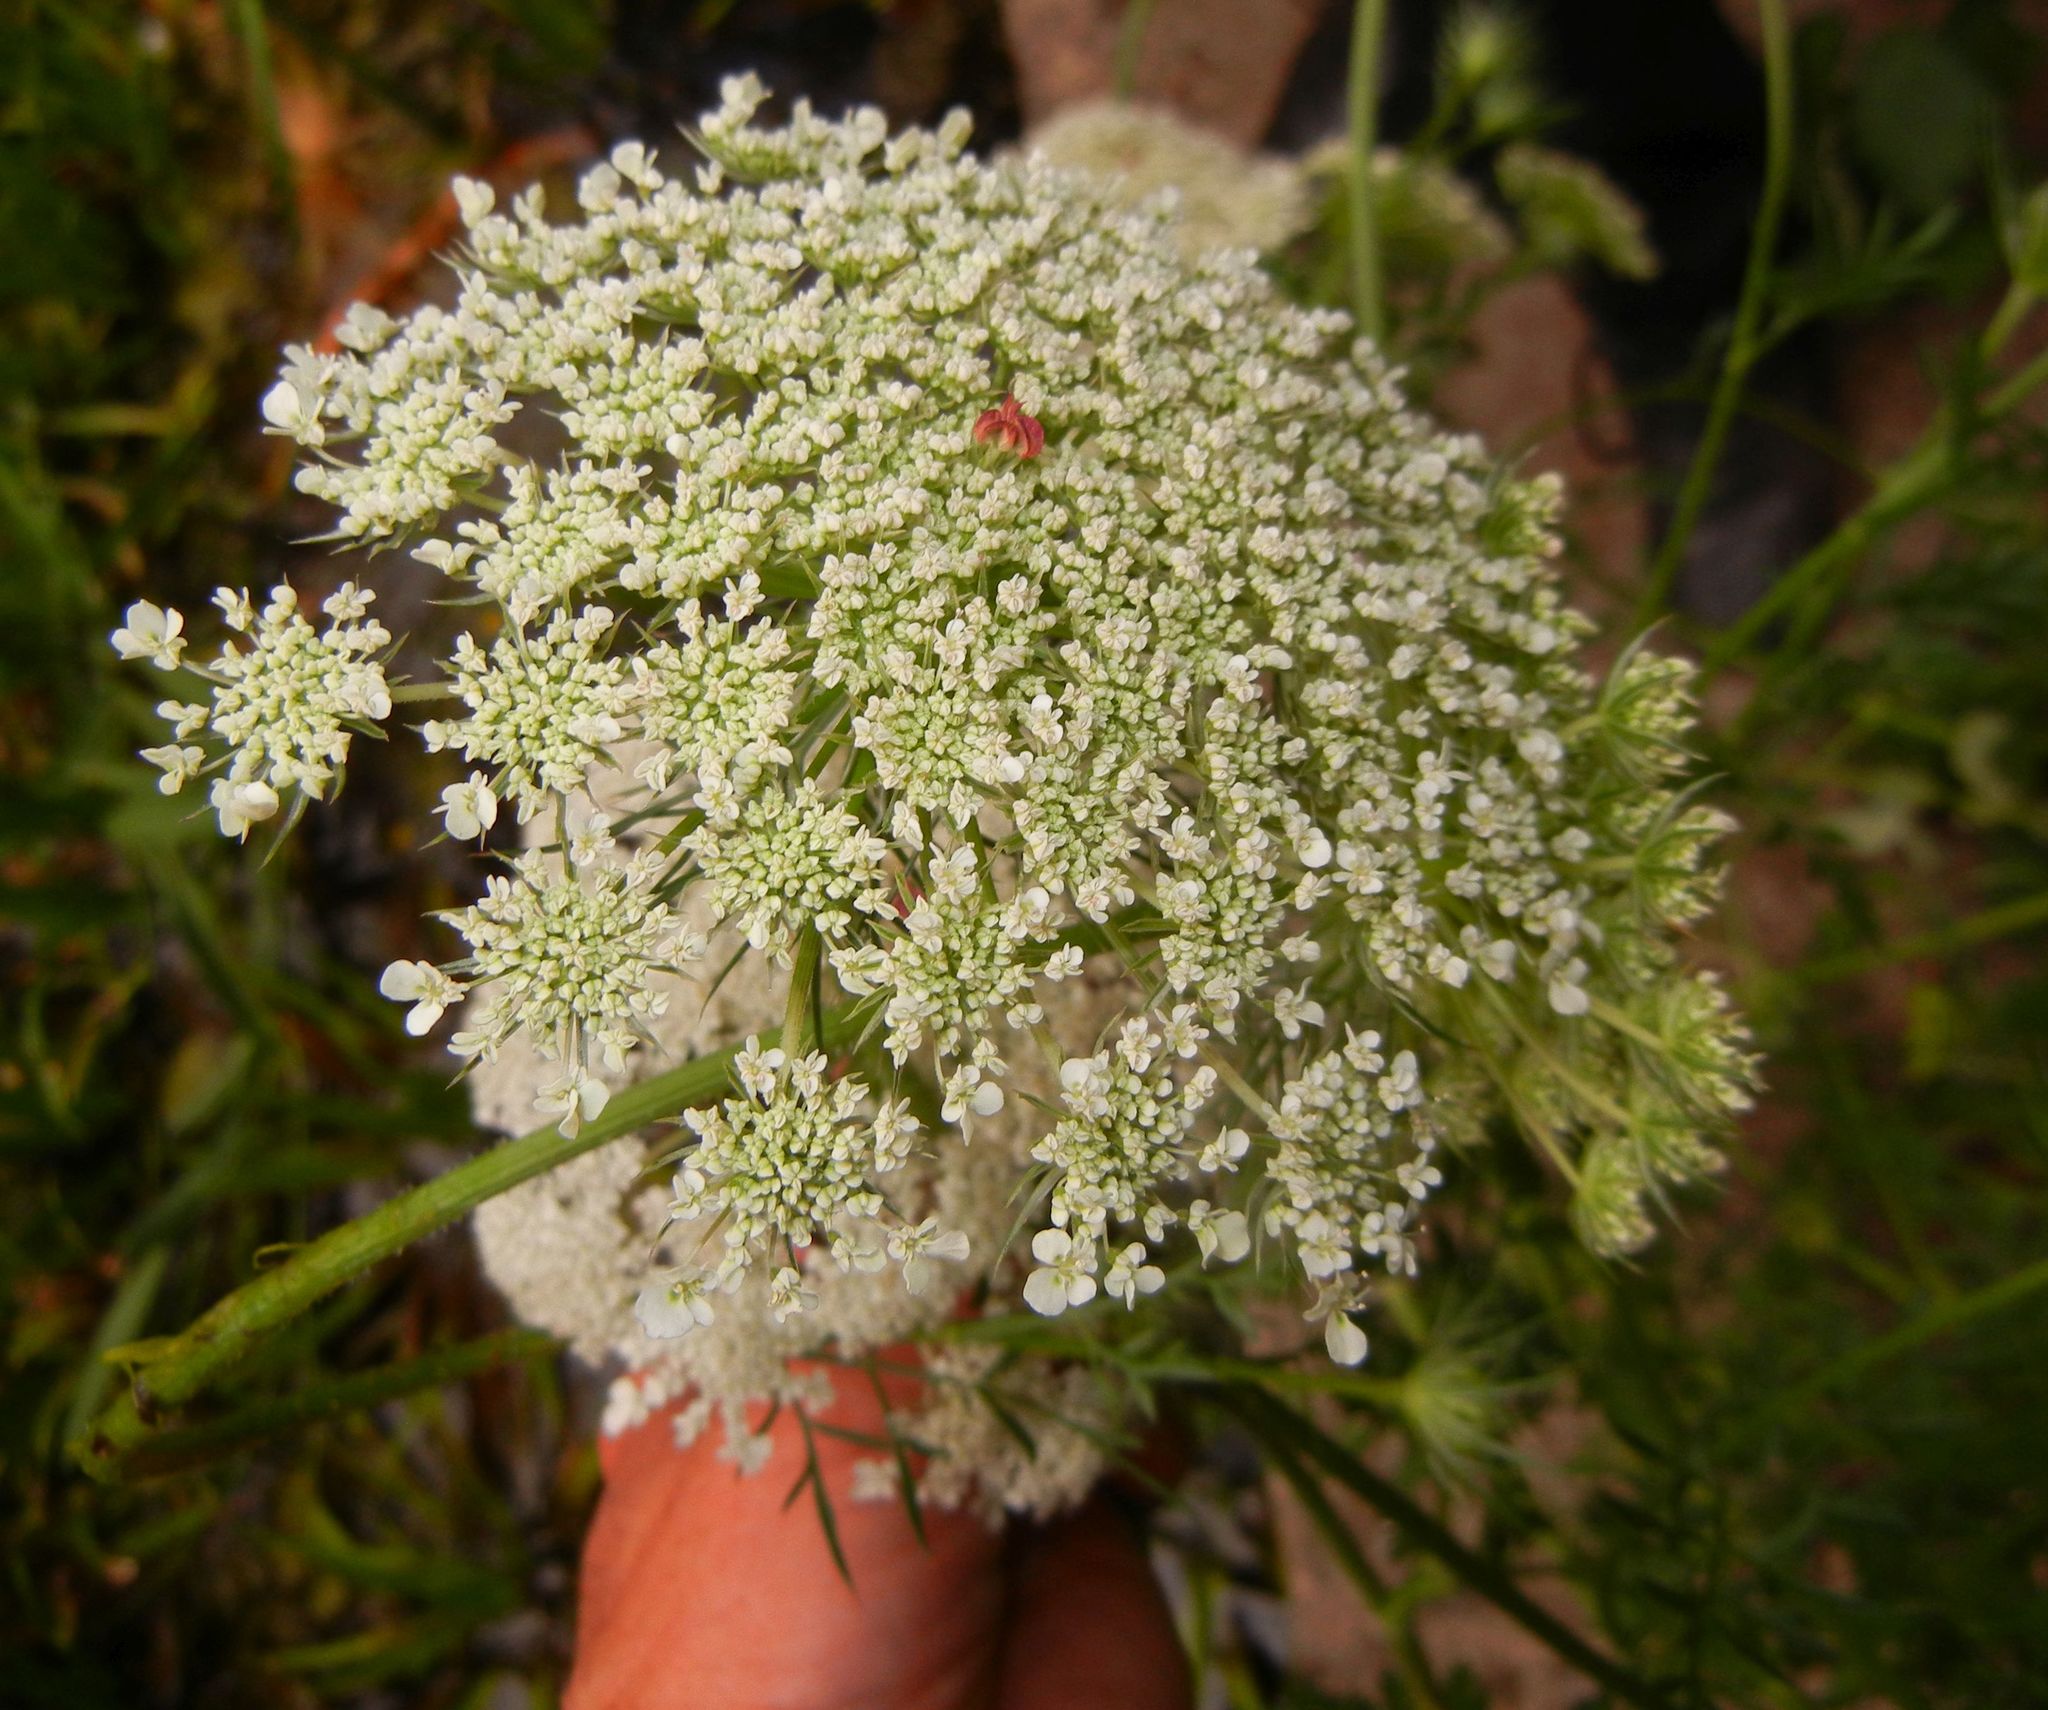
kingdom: Plantae
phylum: Tracheophyta
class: Magnoliopsida
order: Apiales
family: Apiaceae
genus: Daucus
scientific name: Daucus carota
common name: Wild carrot
